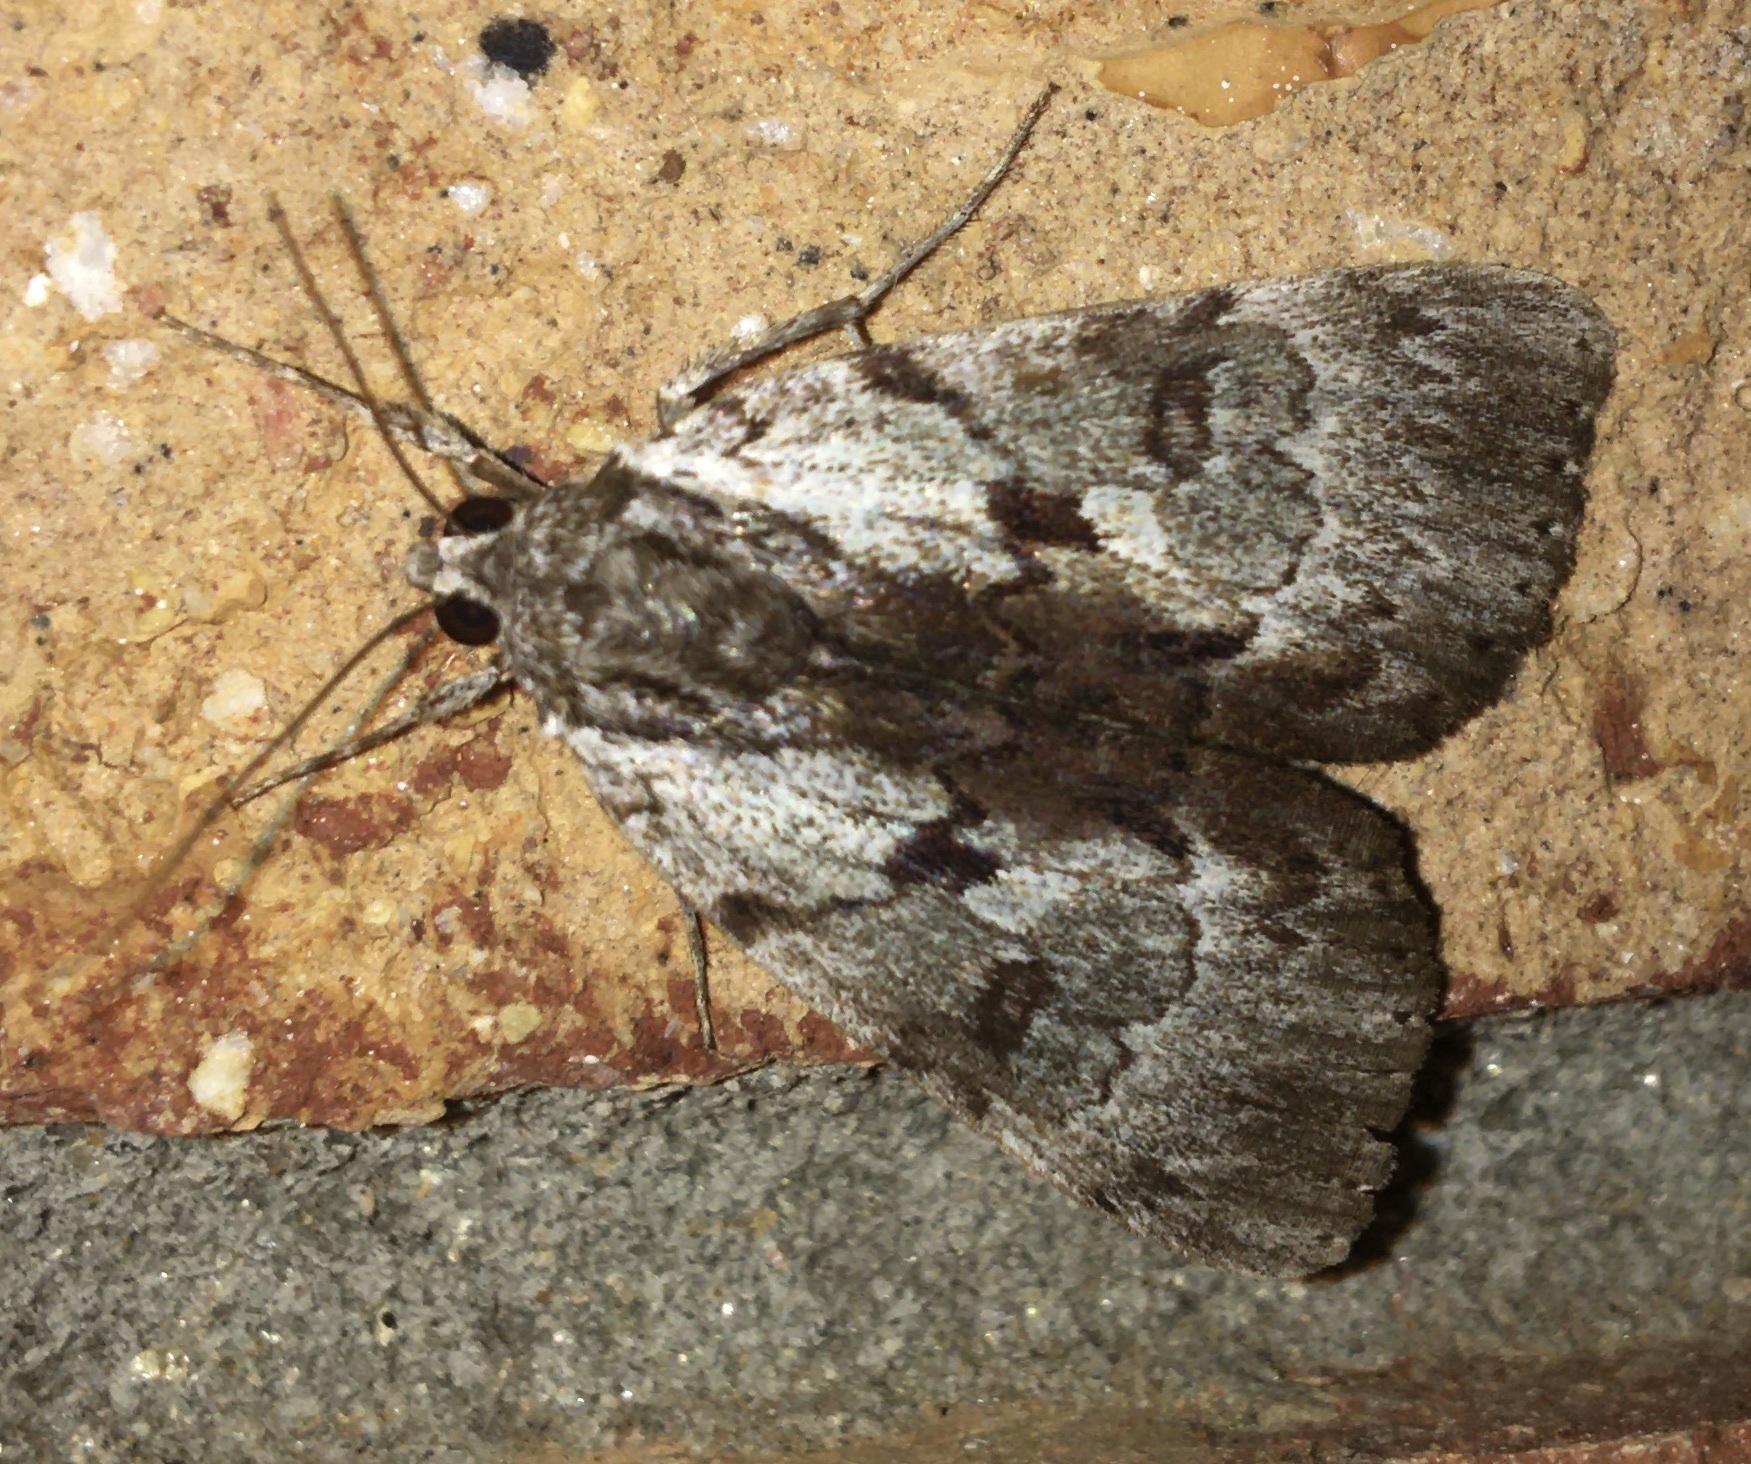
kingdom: Animalia
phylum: Arthropoda
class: Insecta
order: Lepidoptera
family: Erebidae
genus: Catocala
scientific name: Catocala andromedae
